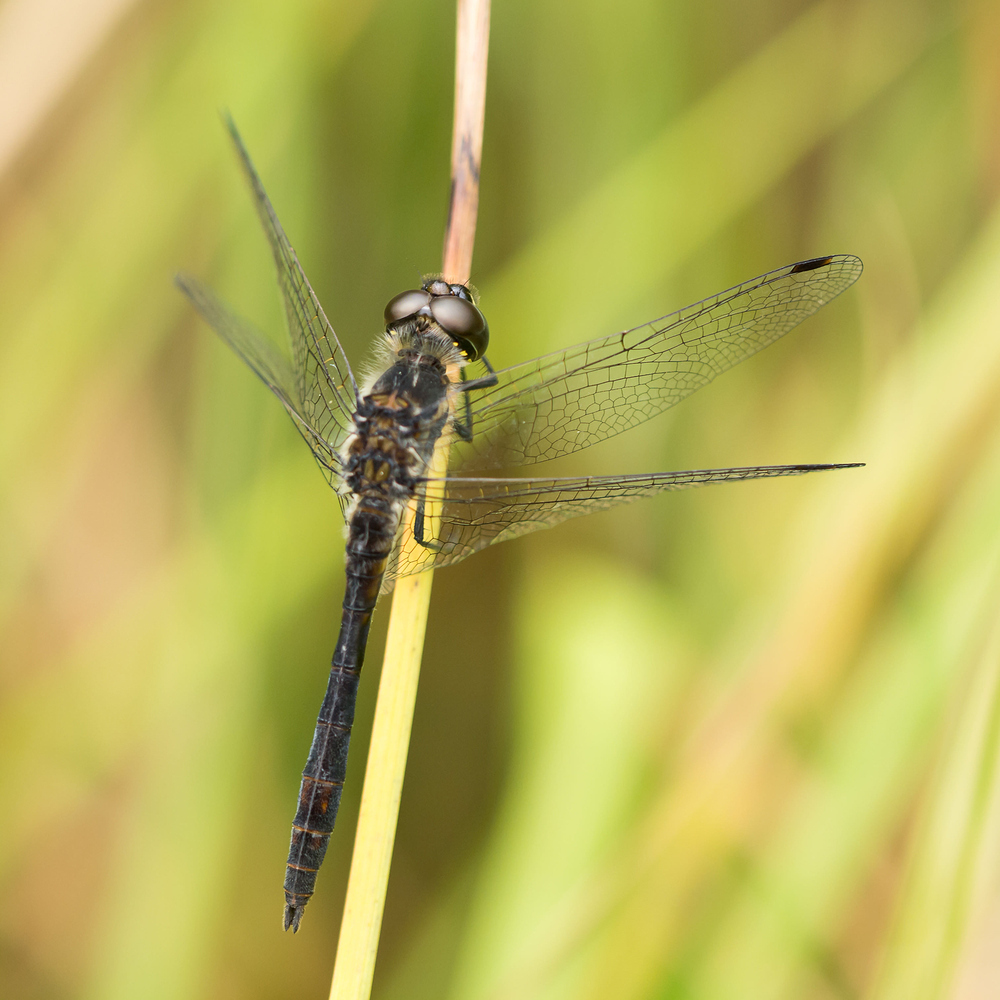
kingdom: Animalia
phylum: Arthropoda
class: Insecta
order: Odonata
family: Libellulidae
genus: Sympetrum
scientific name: Sympetrum danae
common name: Black darter
